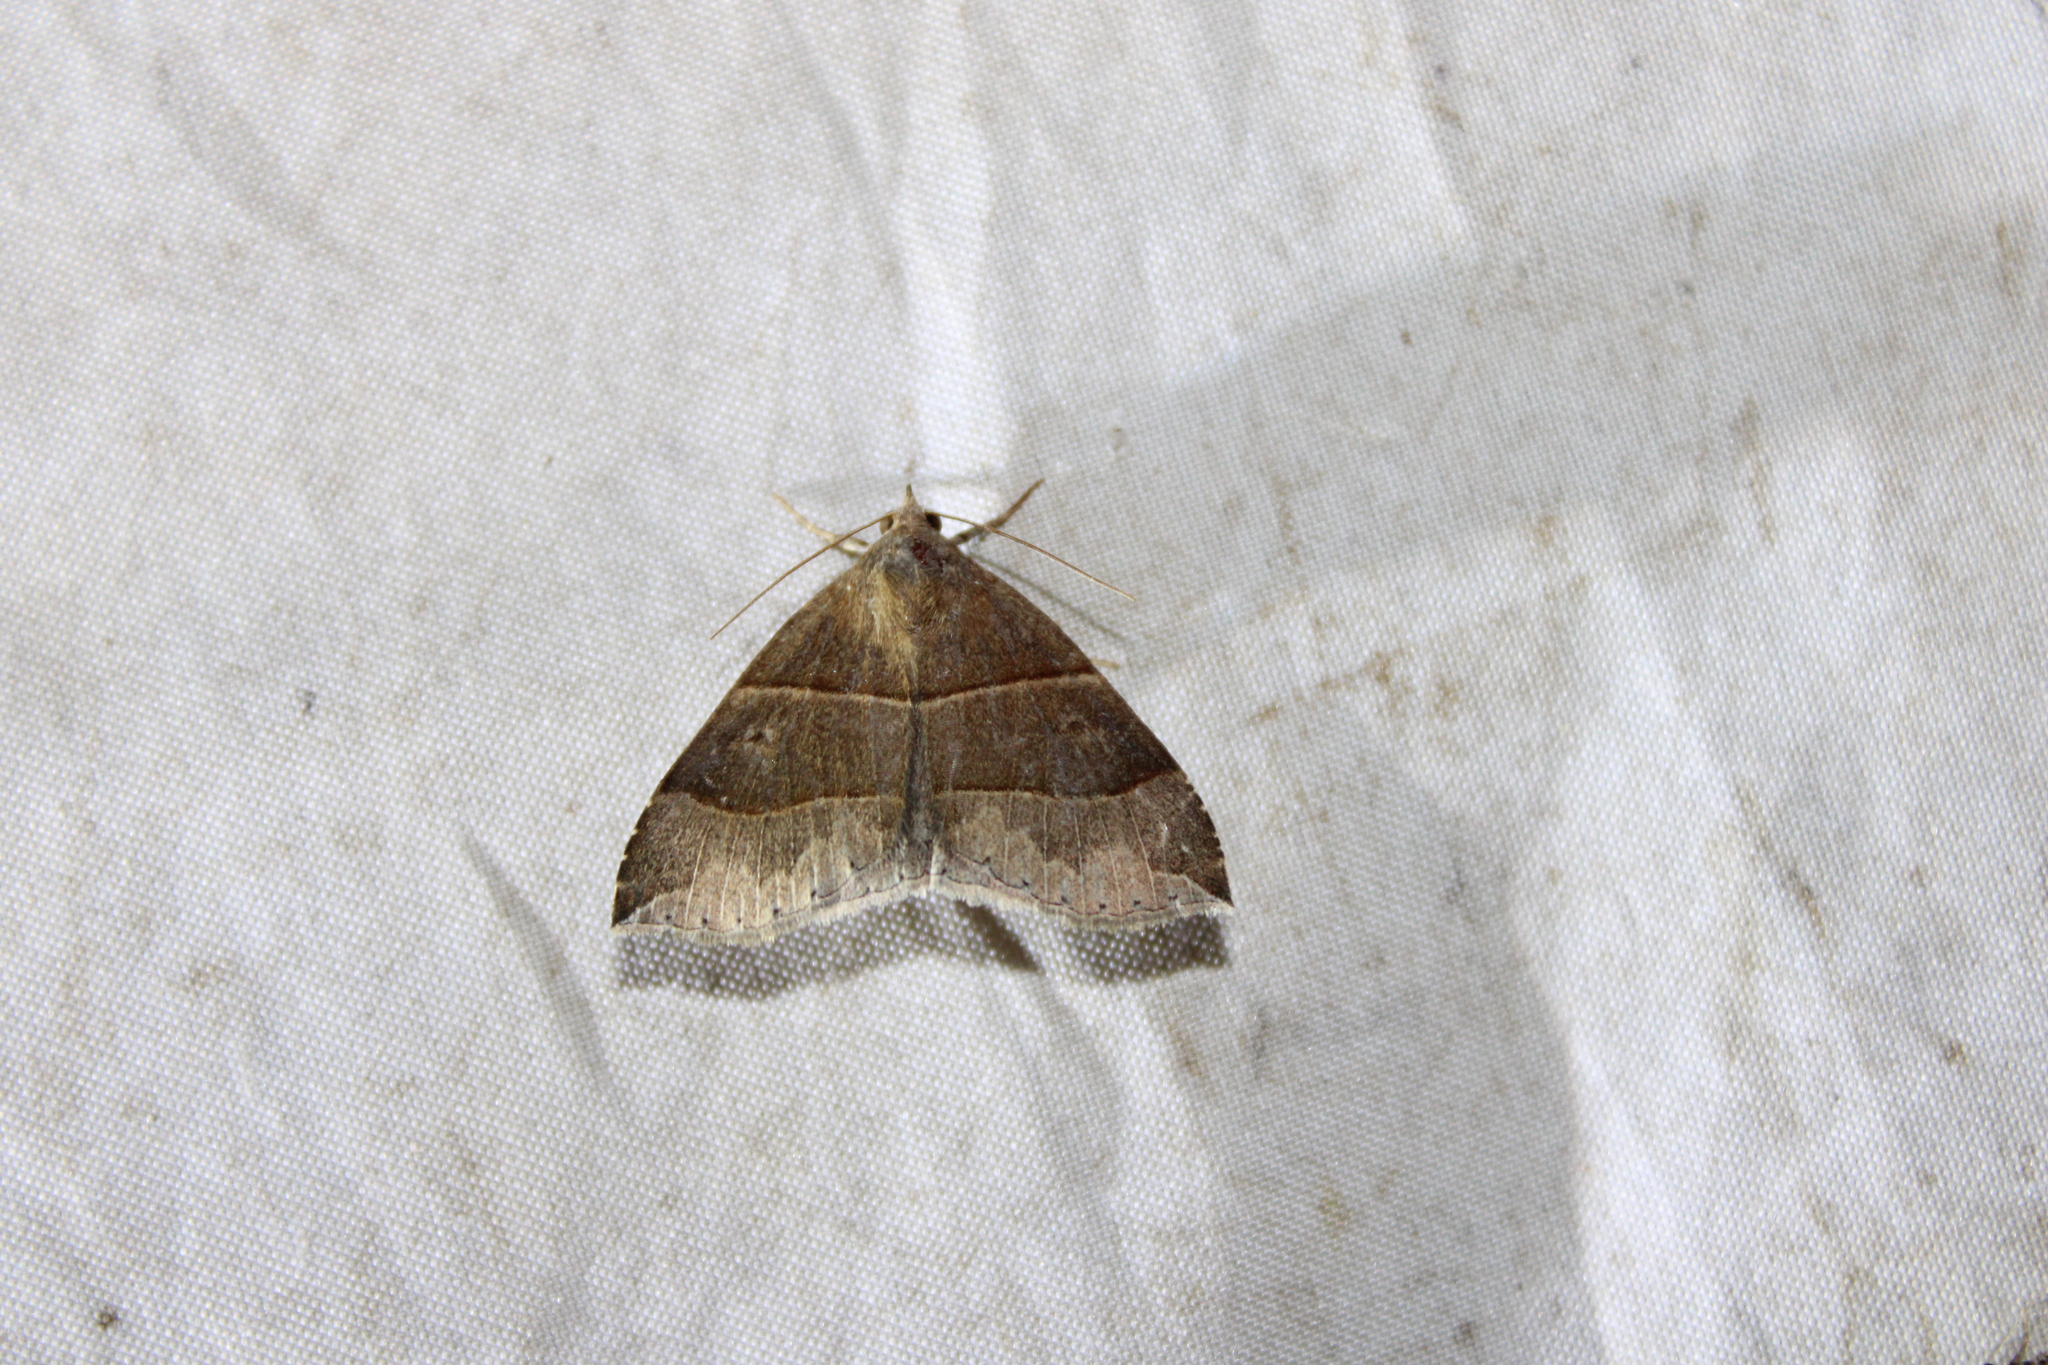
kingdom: Animalia
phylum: Arthropoda
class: Insecta
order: Lepidoptera
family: Erebidae
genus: Parallelia
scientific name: Parallelia bistriaris
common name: Maple looper moth
